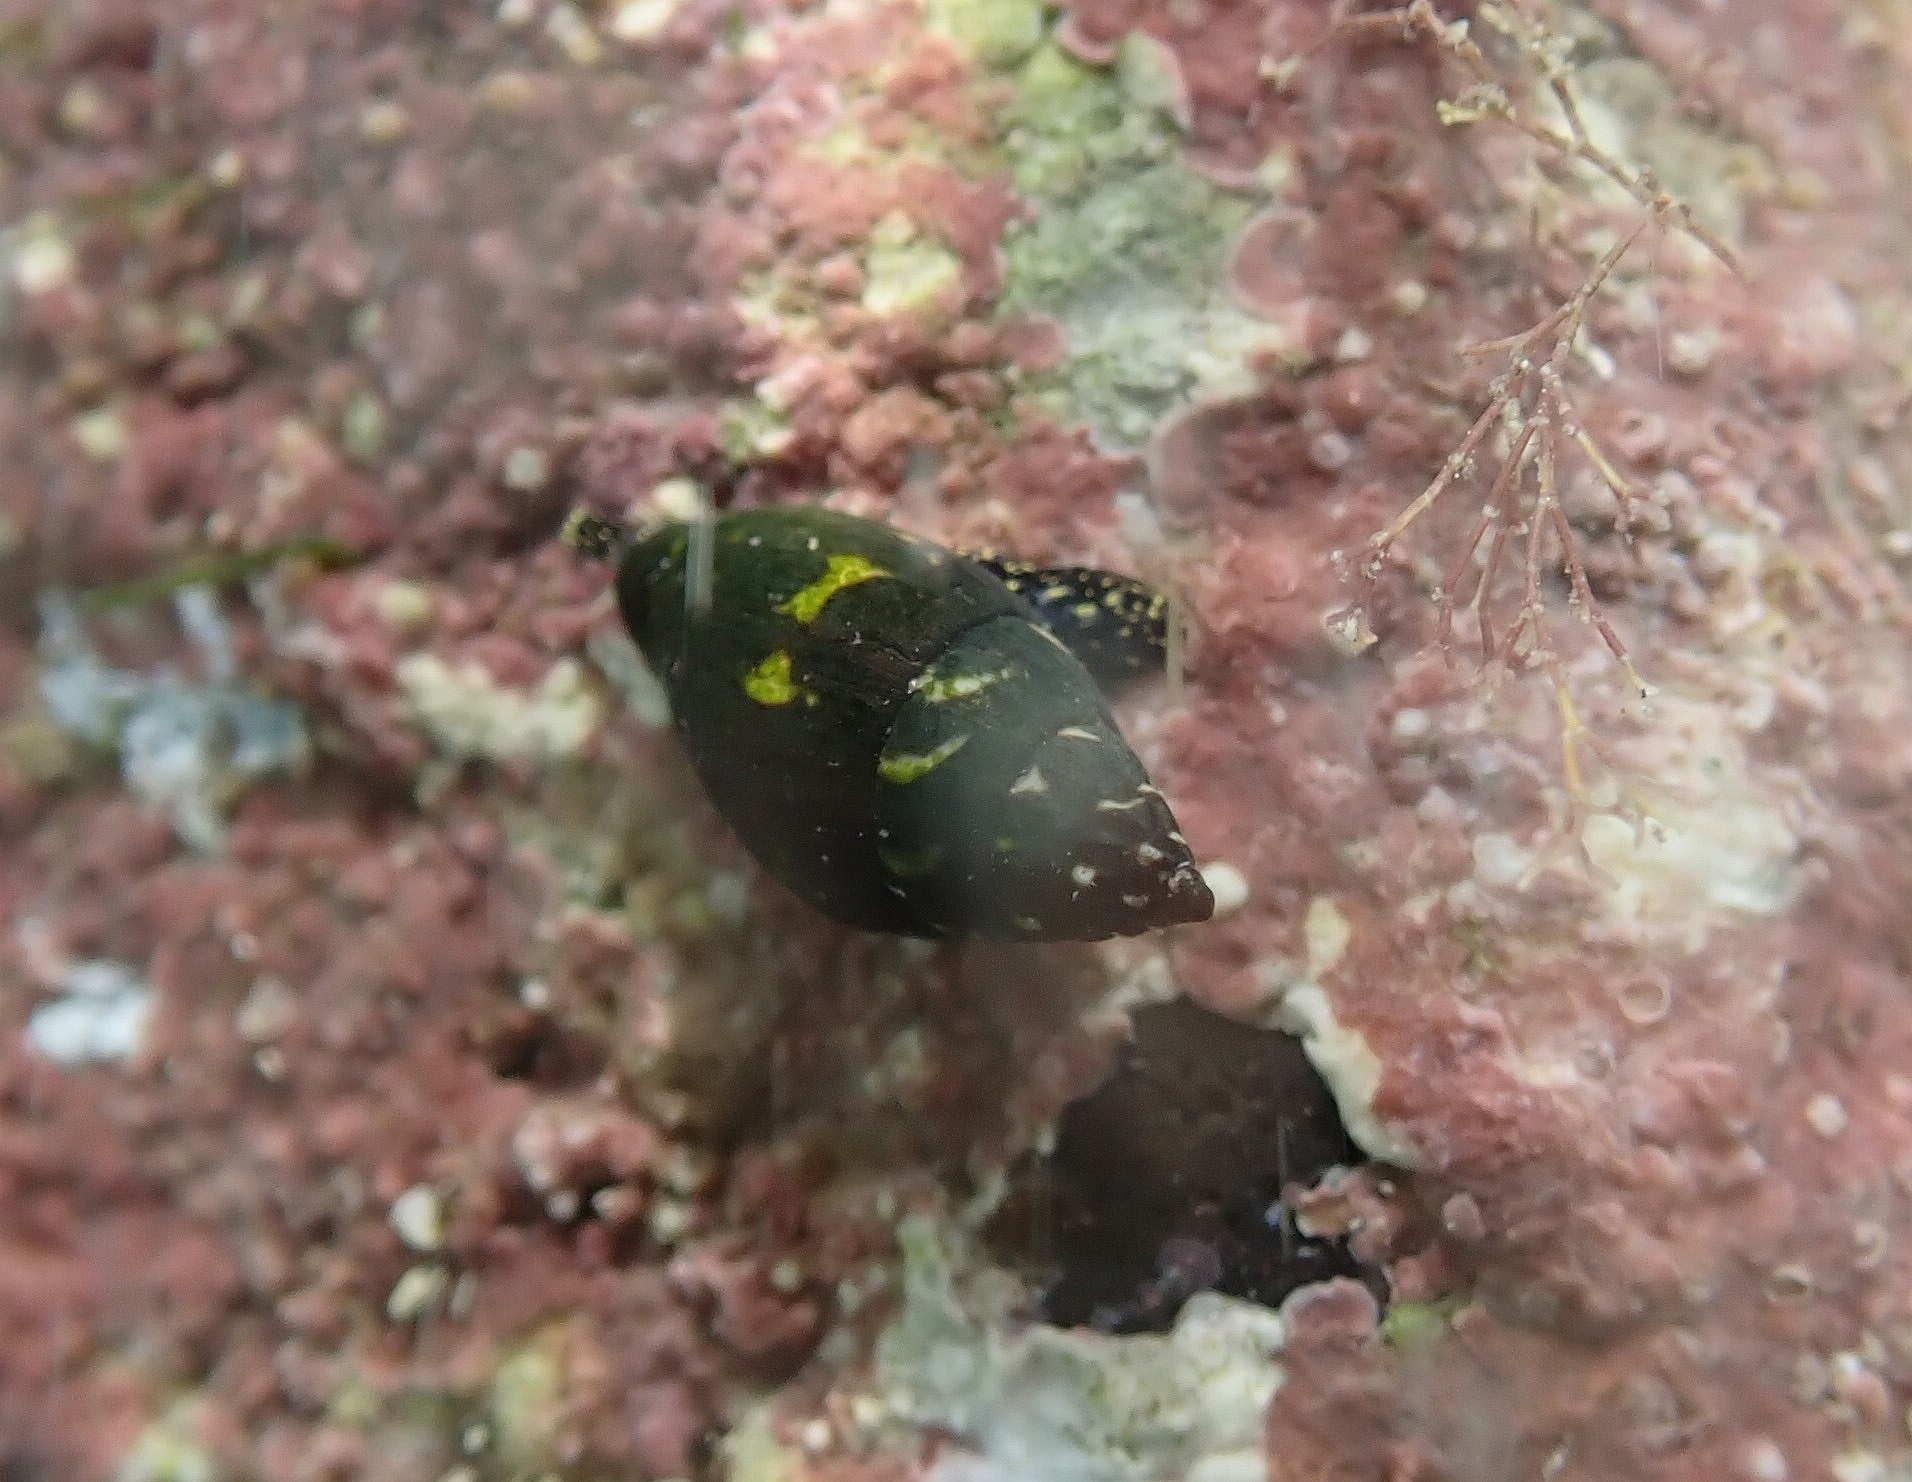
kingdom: Animalia
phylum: Mollusca
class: Gastropoda
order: Neogastropoda
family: Costellariidae
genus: Pusia
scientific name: Pusia zebrina
